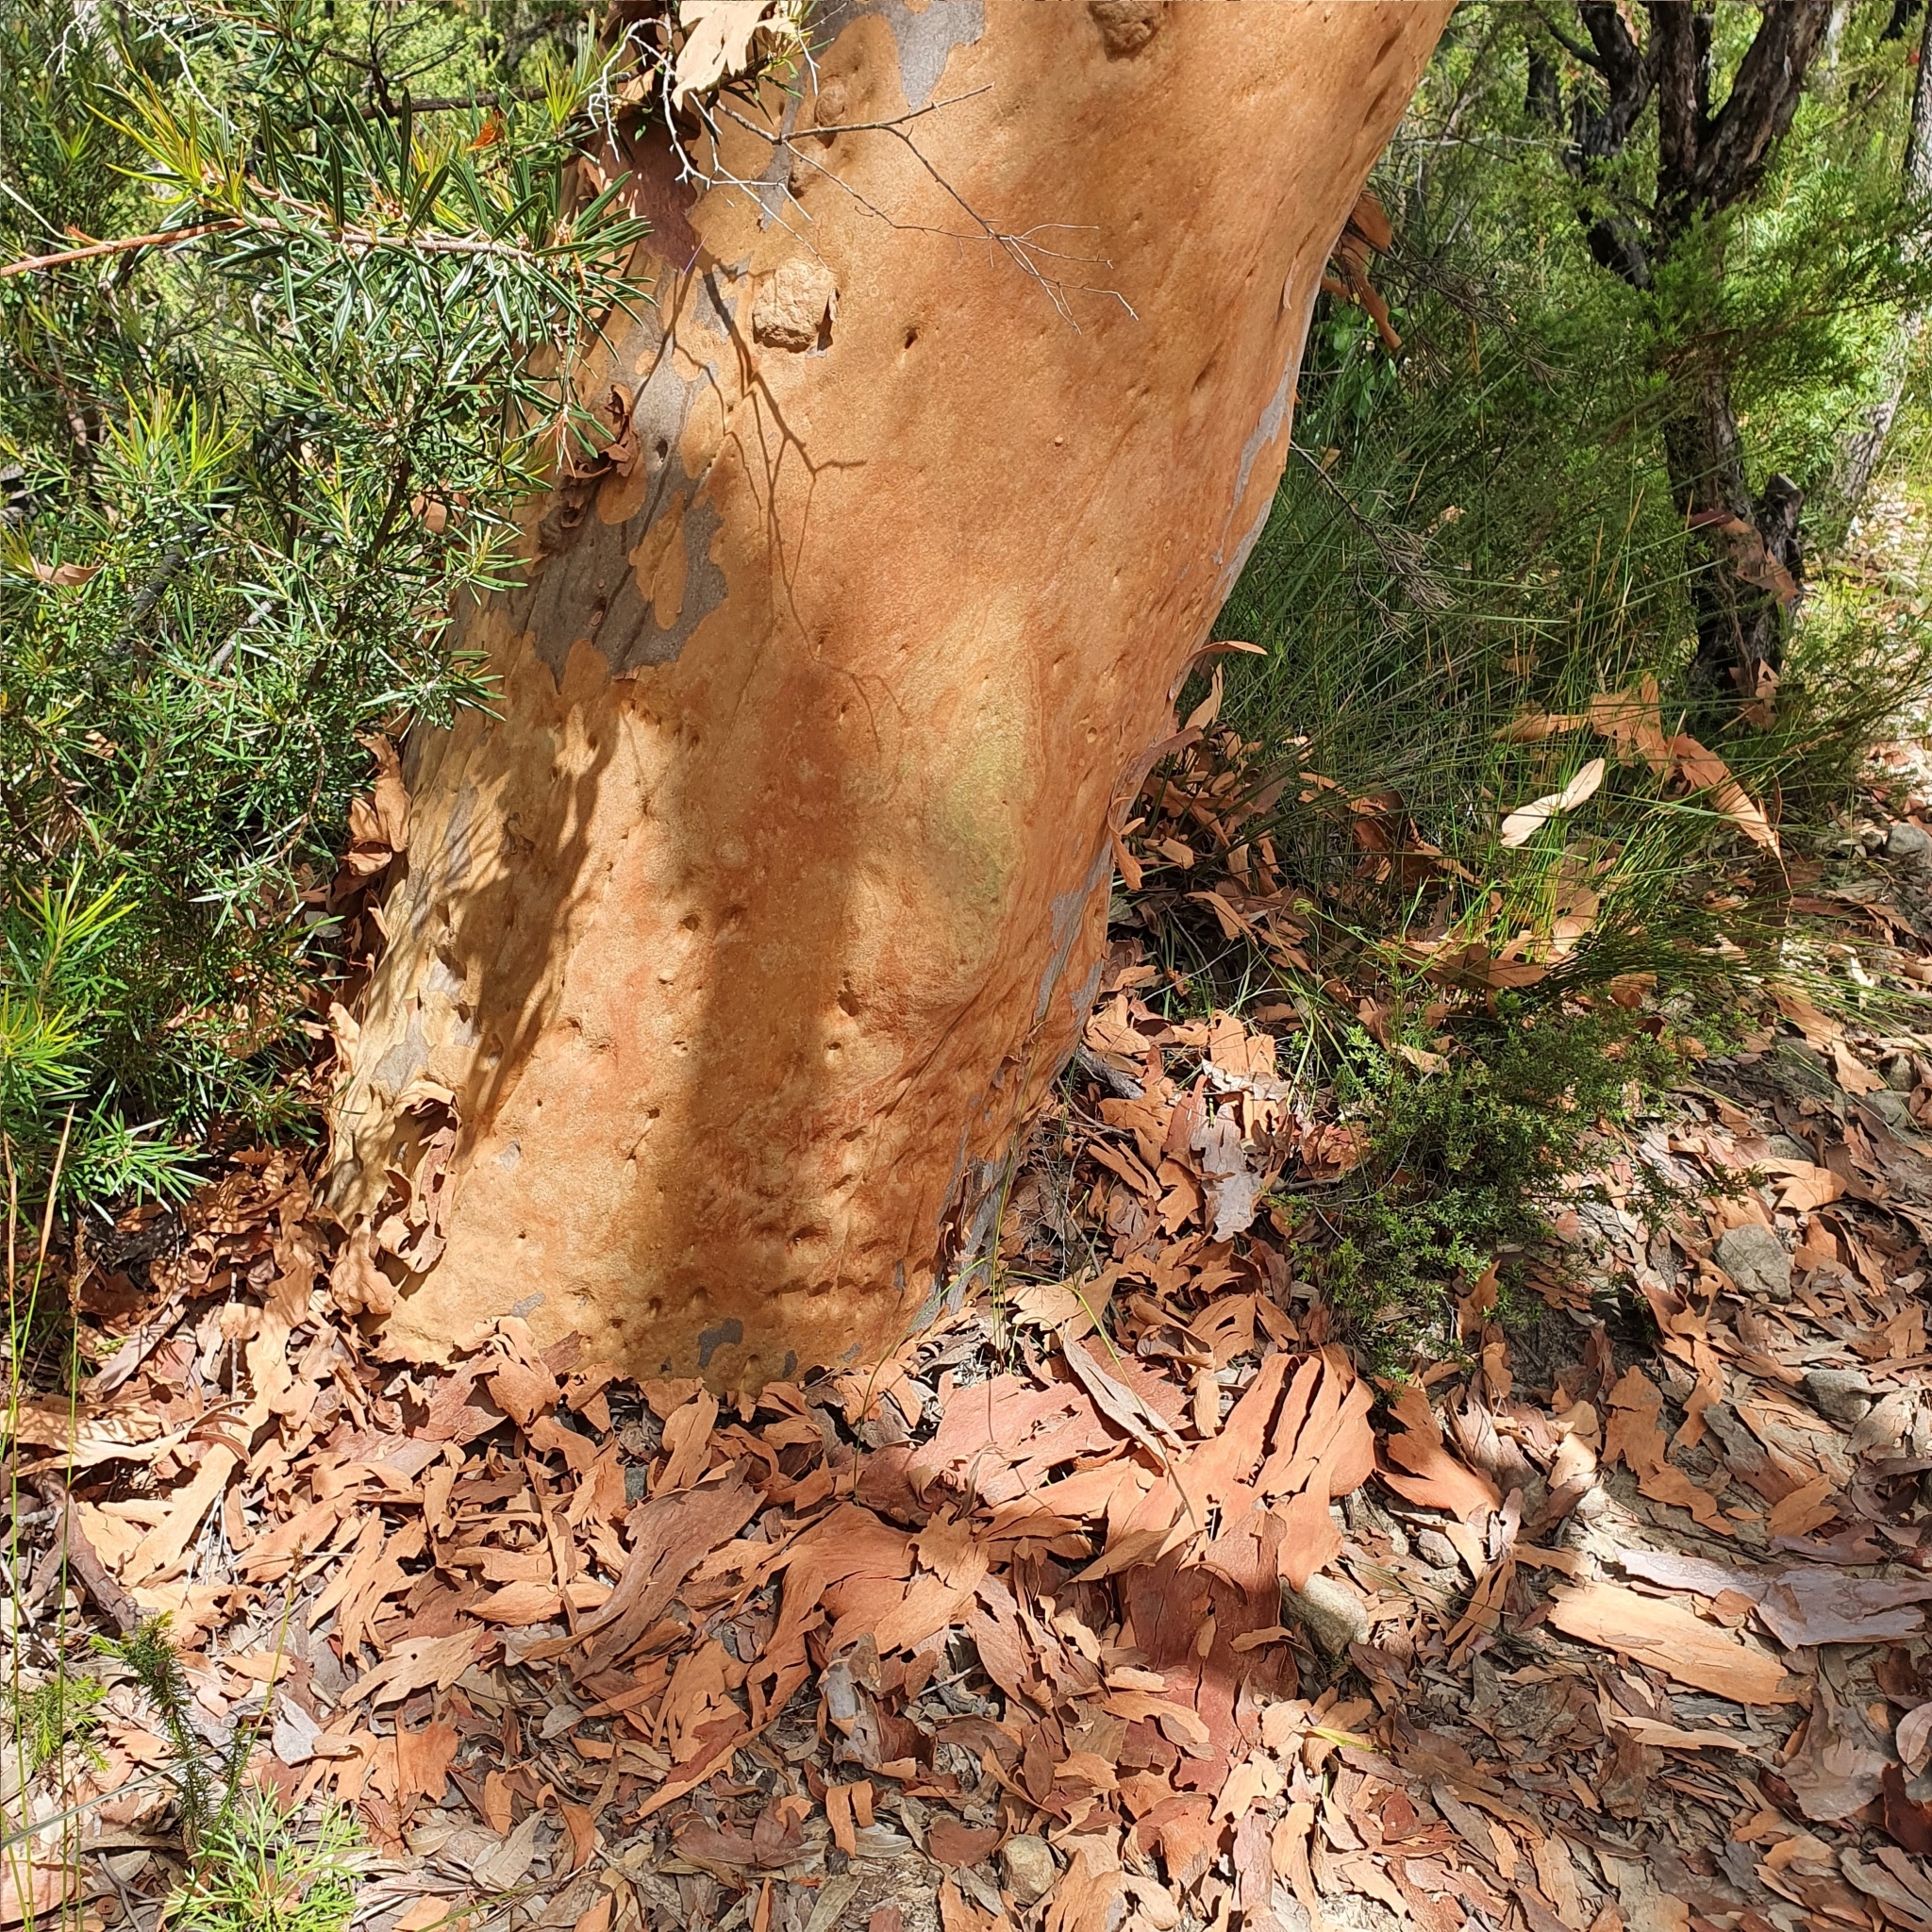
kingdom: Plantae
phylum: Tracheophyta
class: Magnoliopsida
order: Myrtales
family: Myrtaceae
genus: Angophora
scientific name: Angophora costata
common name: Gum myrtle
